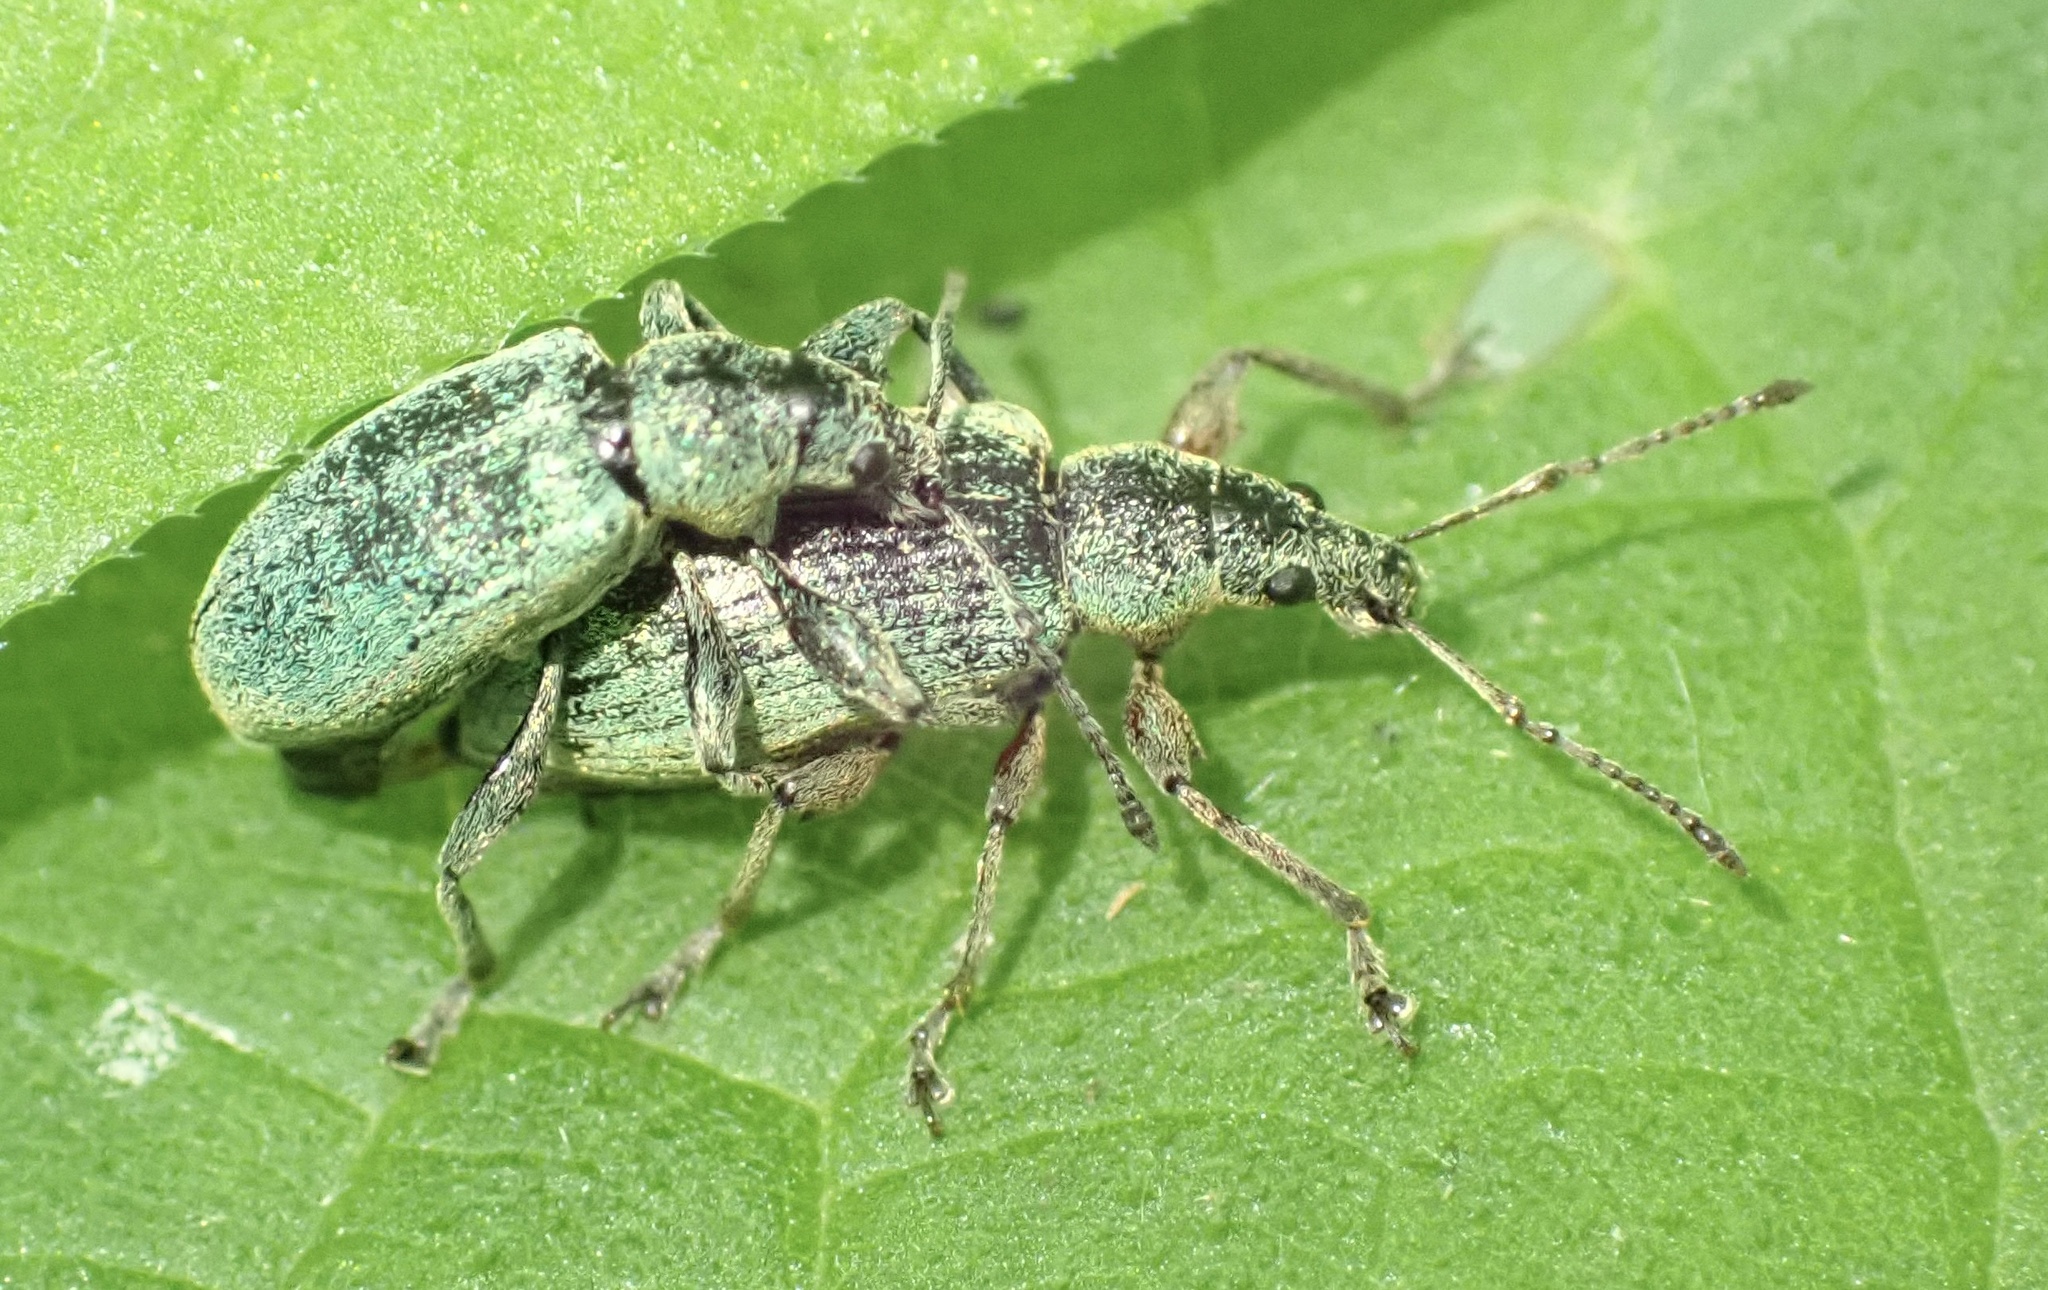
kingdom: Animalia
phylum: Arthropoda
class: Insecta
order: Coleoptera
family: Curculionidae
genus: Phyllobius
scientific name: Phyllobius pomaceus
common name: Green nettle weevil
